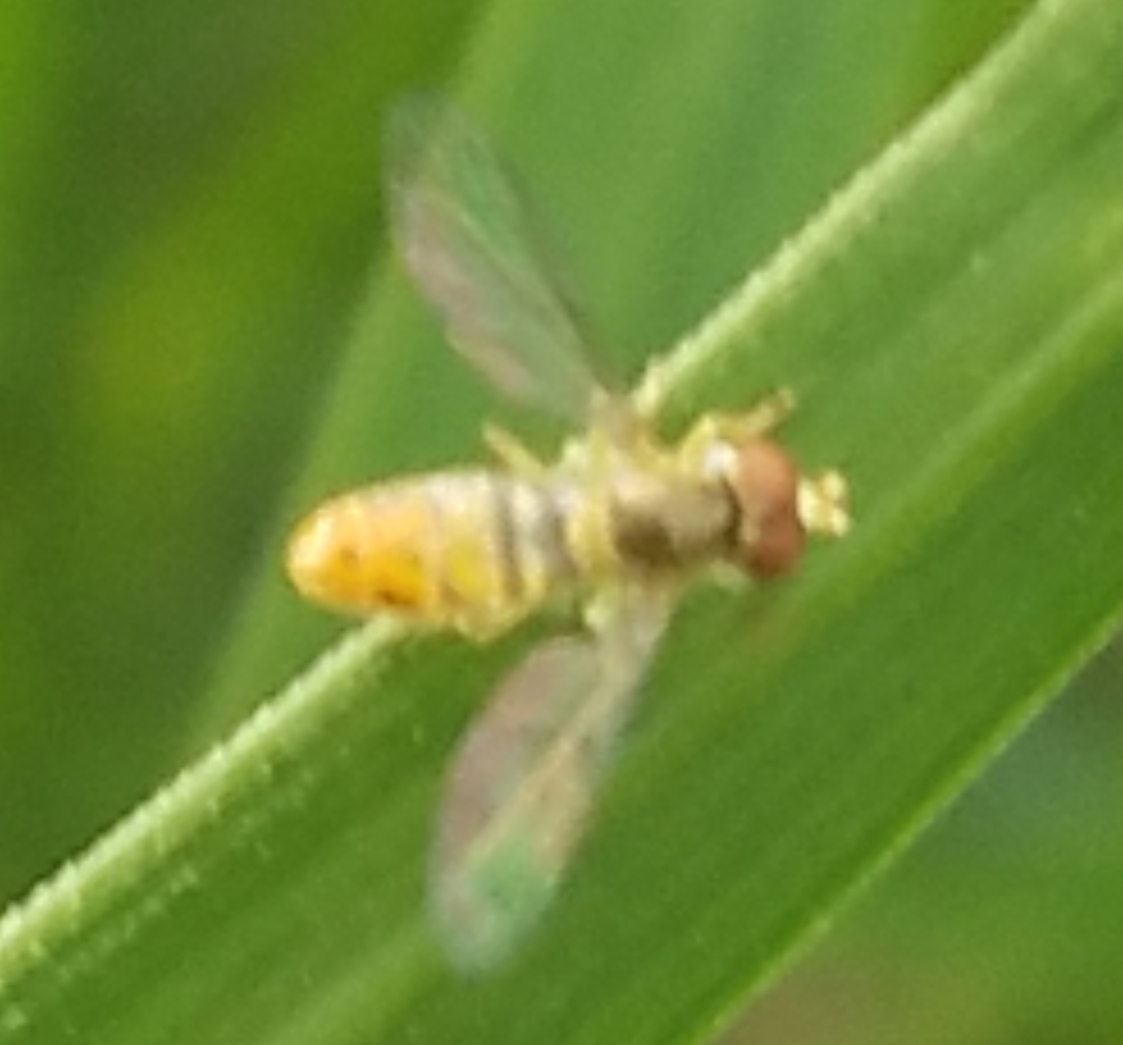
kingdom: Animalia
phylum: Arthropoda
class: Insecta
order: Diptera
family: Syrphidae
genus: Toxomerus
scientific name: Toxomerus marginatus
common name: Syrphid fly
